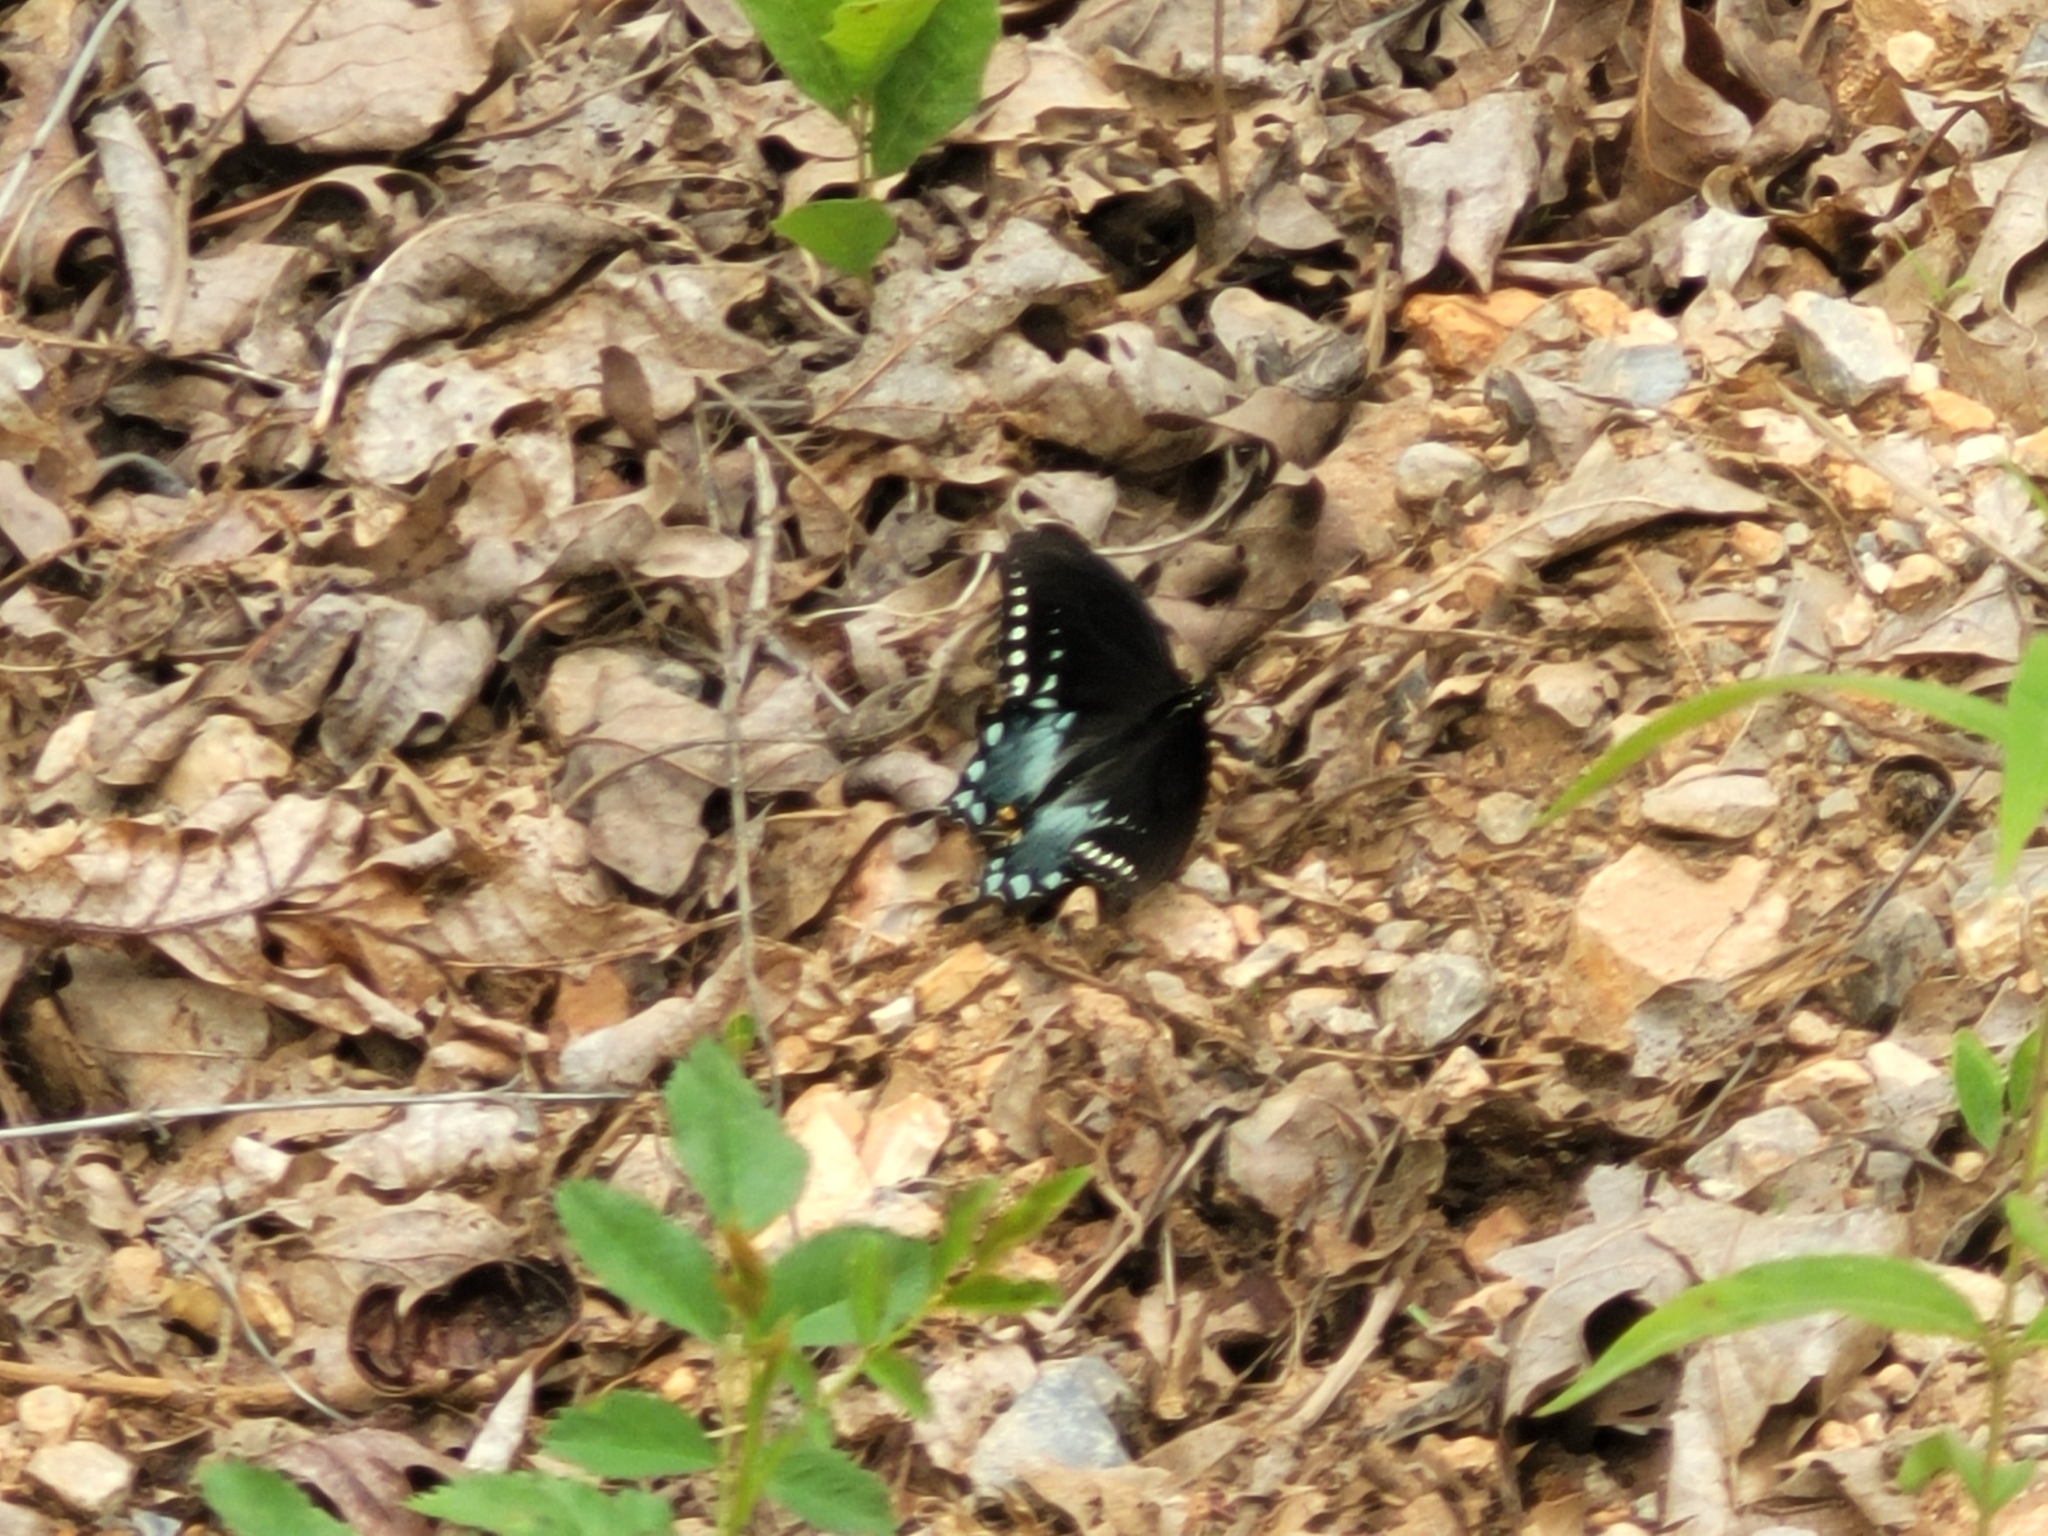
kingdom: Animalia
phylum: Arthropoda
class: Insecta
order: Lepidoptera
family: Papilionidae
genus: Papilio
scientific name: Papilio troilus
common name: Spicebush swallowtail
